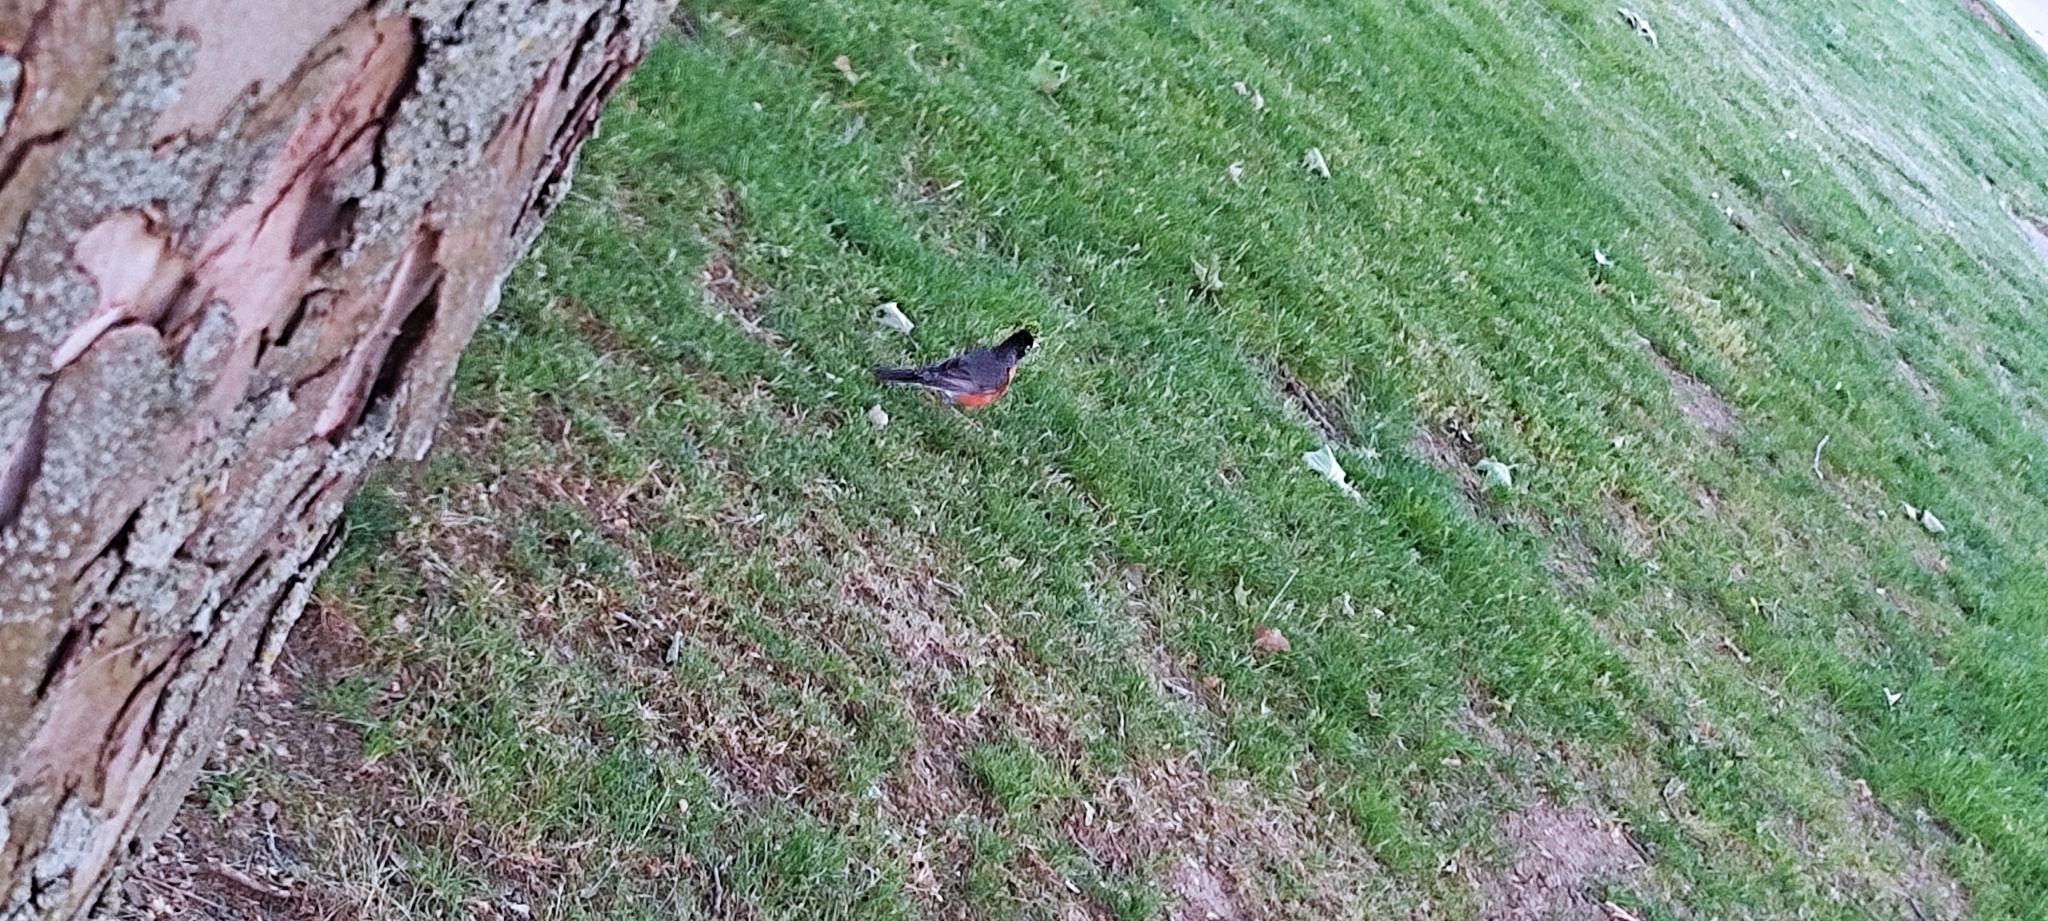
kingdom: Animalia
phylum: Chordata
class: Aves
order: Passeriformes
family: Turdidae
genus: Turdus
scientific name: Turdus migratorius
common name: American robin
